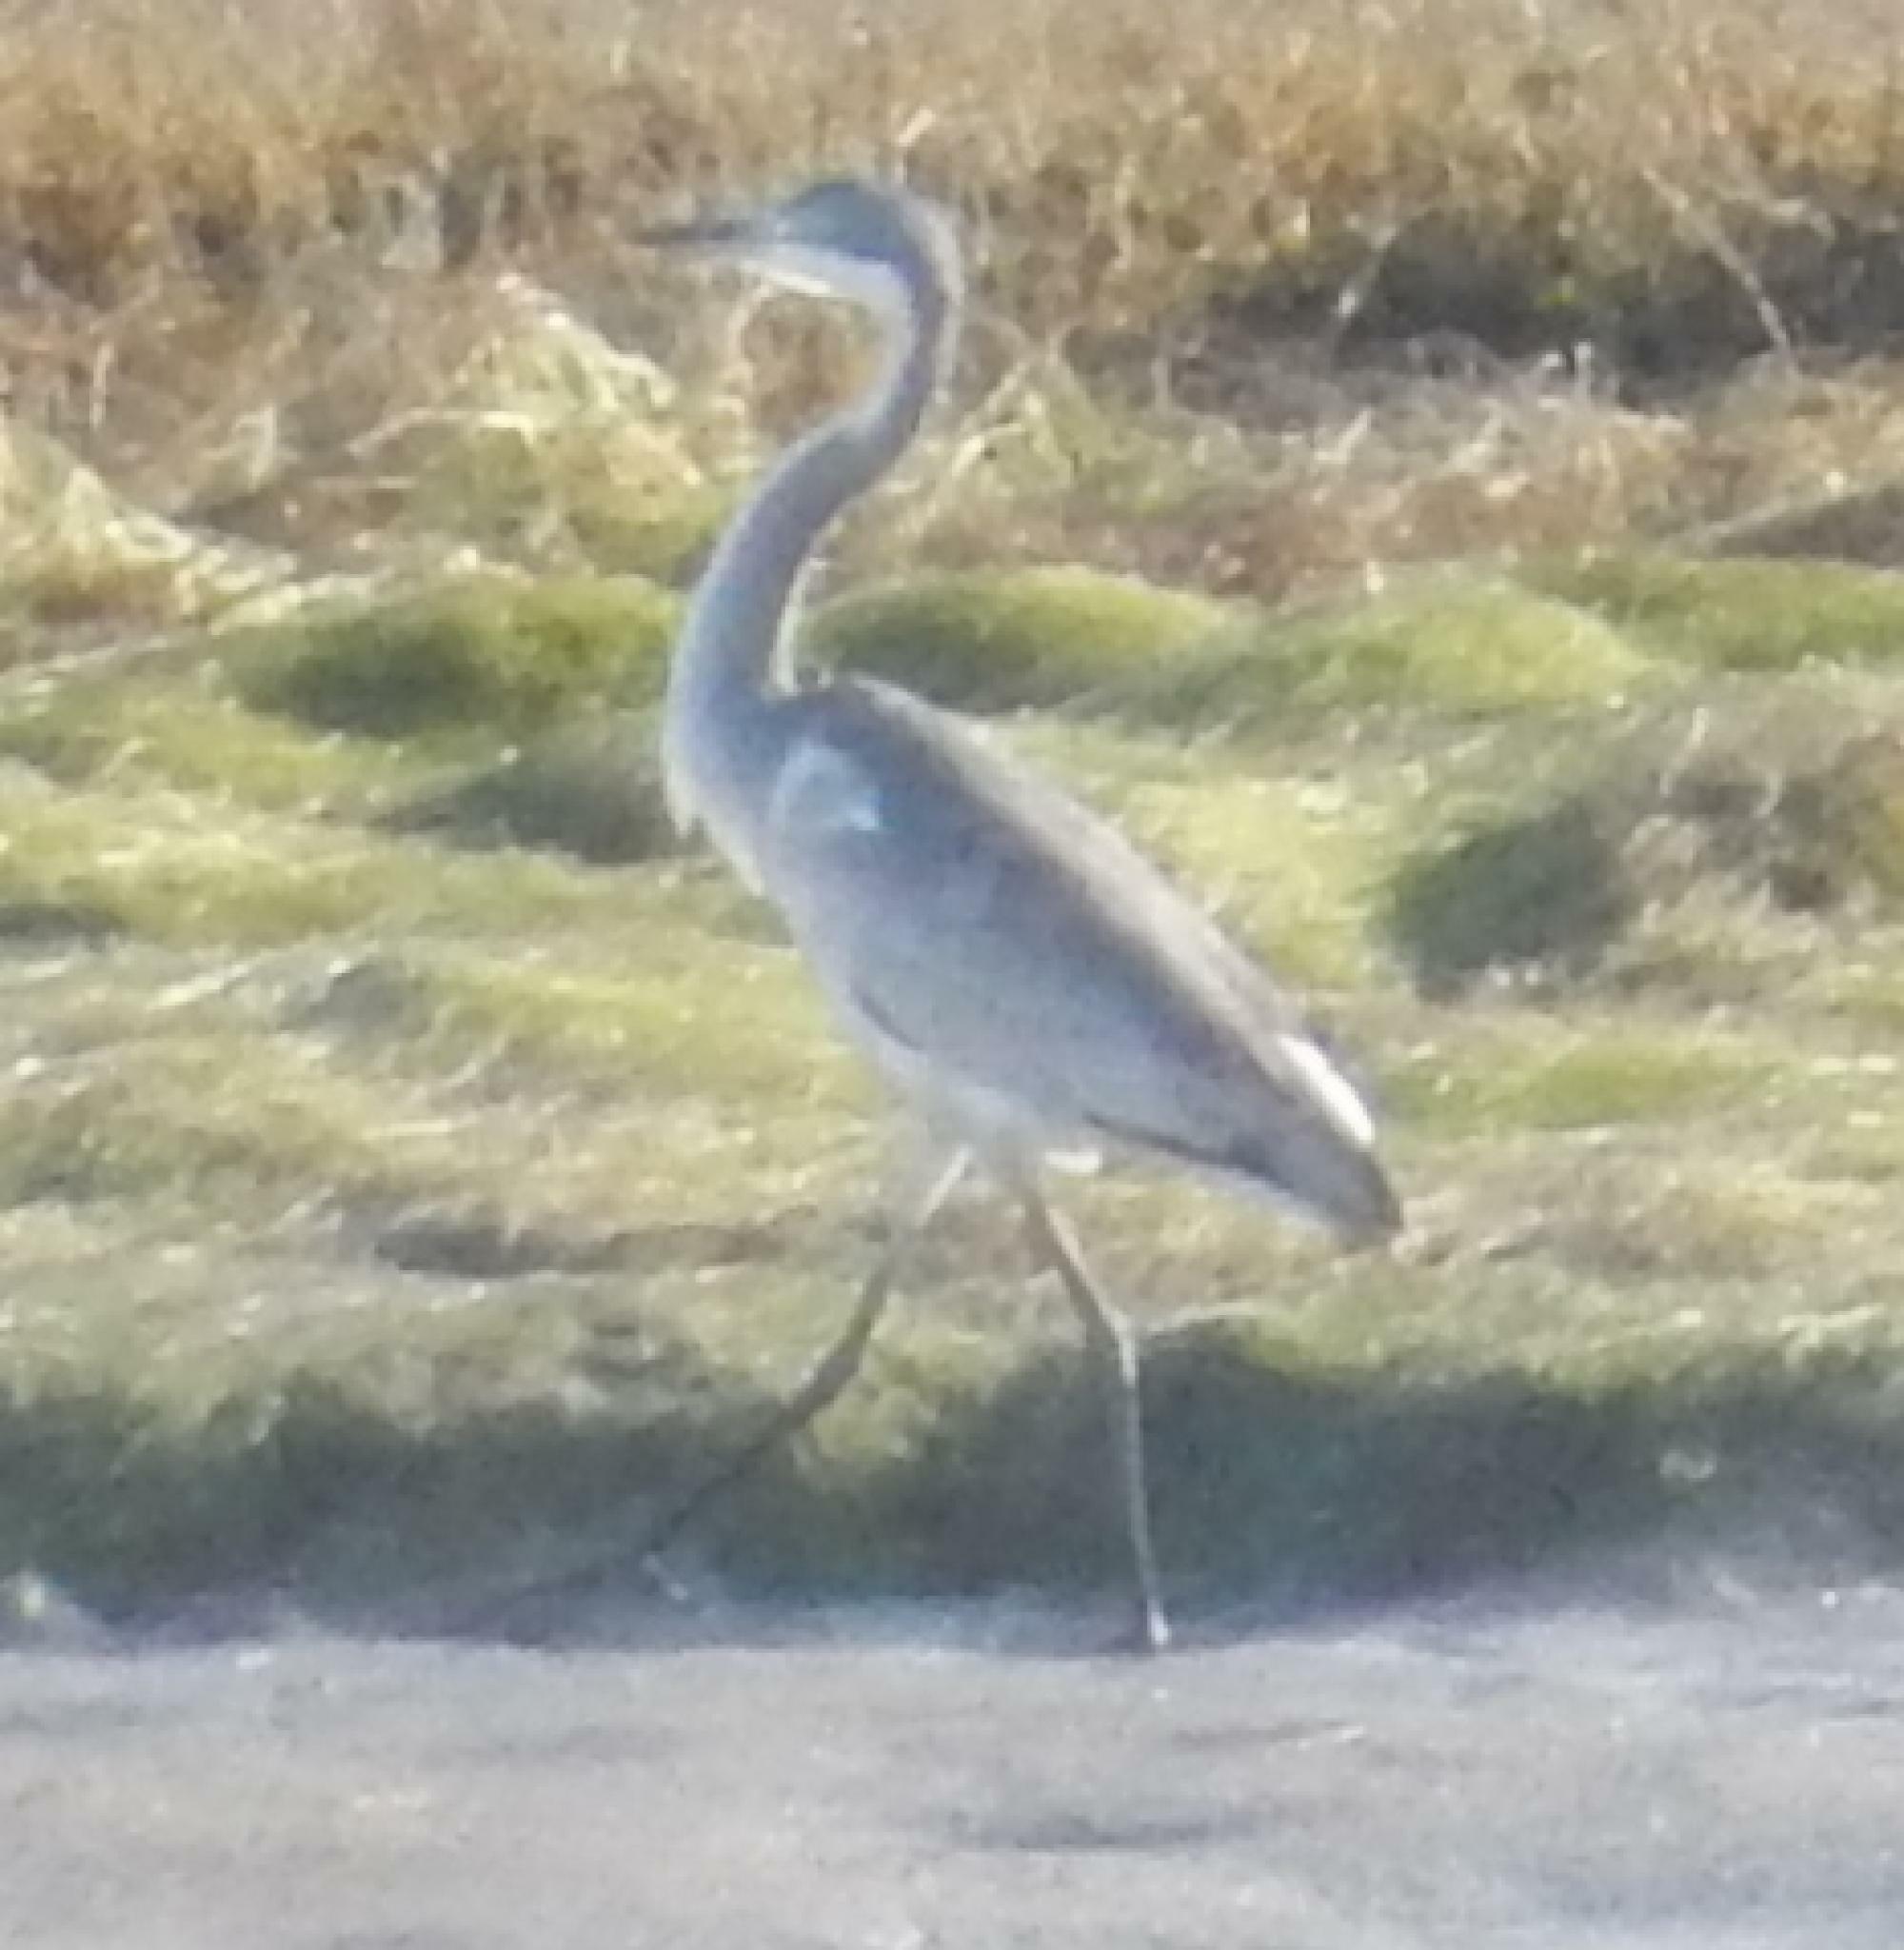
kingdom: Animalia
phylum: Chordata
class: Aves
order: Pelecaniformes
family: Ardeidae
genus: Ardea
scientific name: Ardea melanocephala
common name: Black-headed heron
